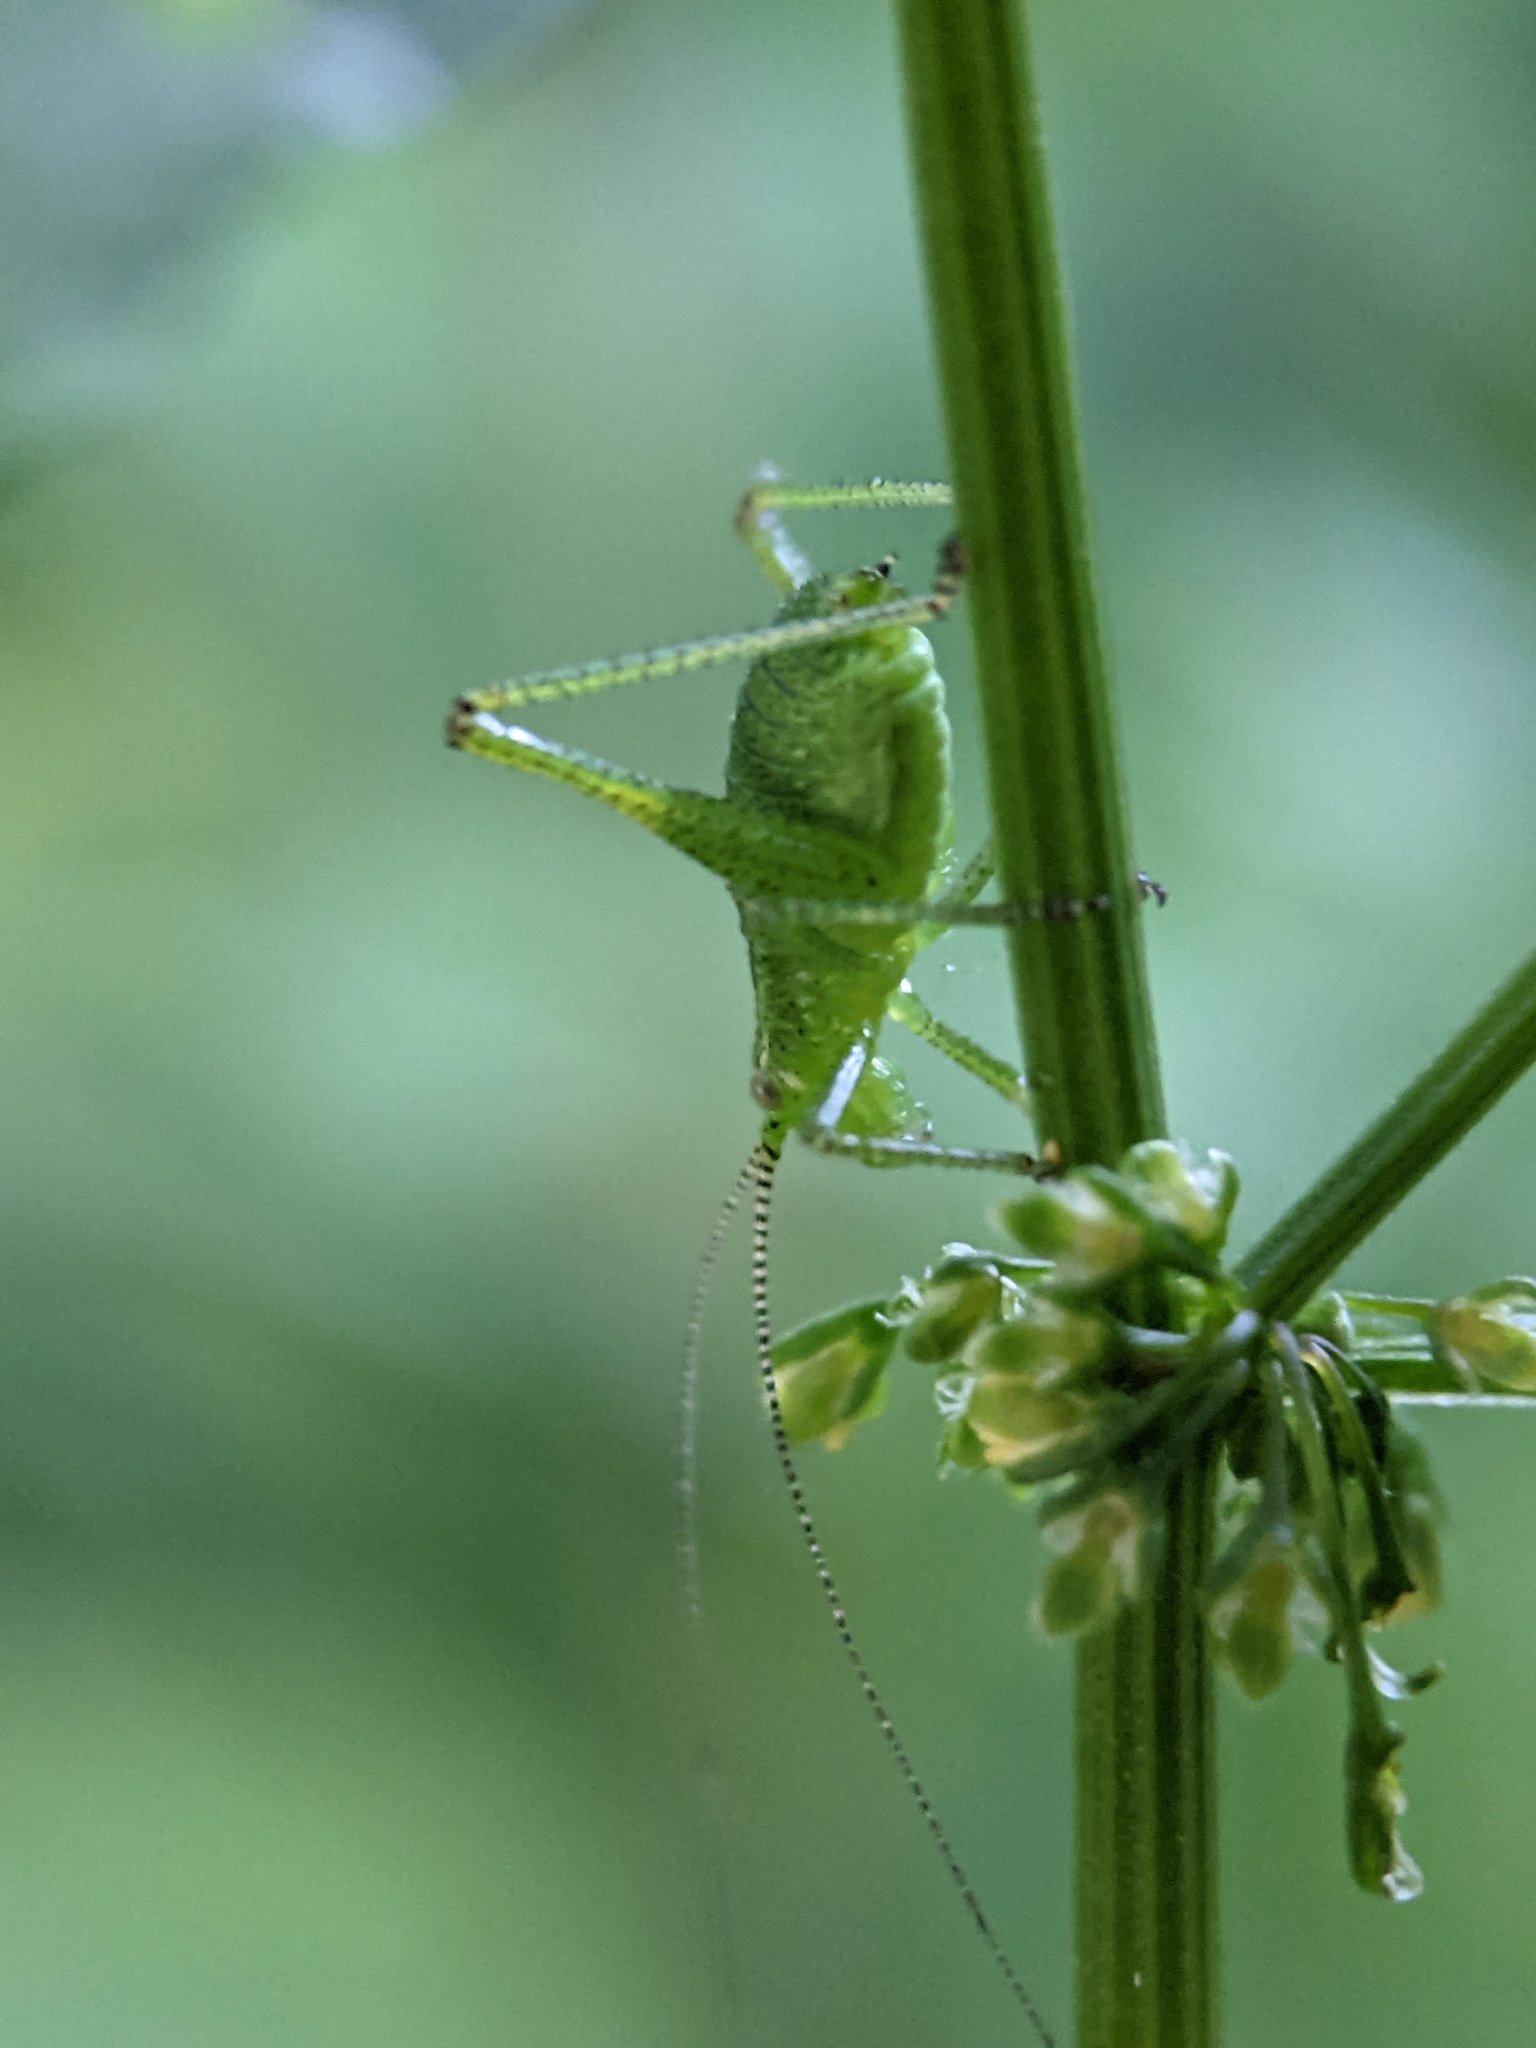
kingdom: Animalia
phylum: Arthropoda
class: Insecta
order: Orthoptera
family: Tettigoniidae
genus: Leptophyes
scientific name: Leptophyes punctatissima
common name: Speckled bush-cricket
